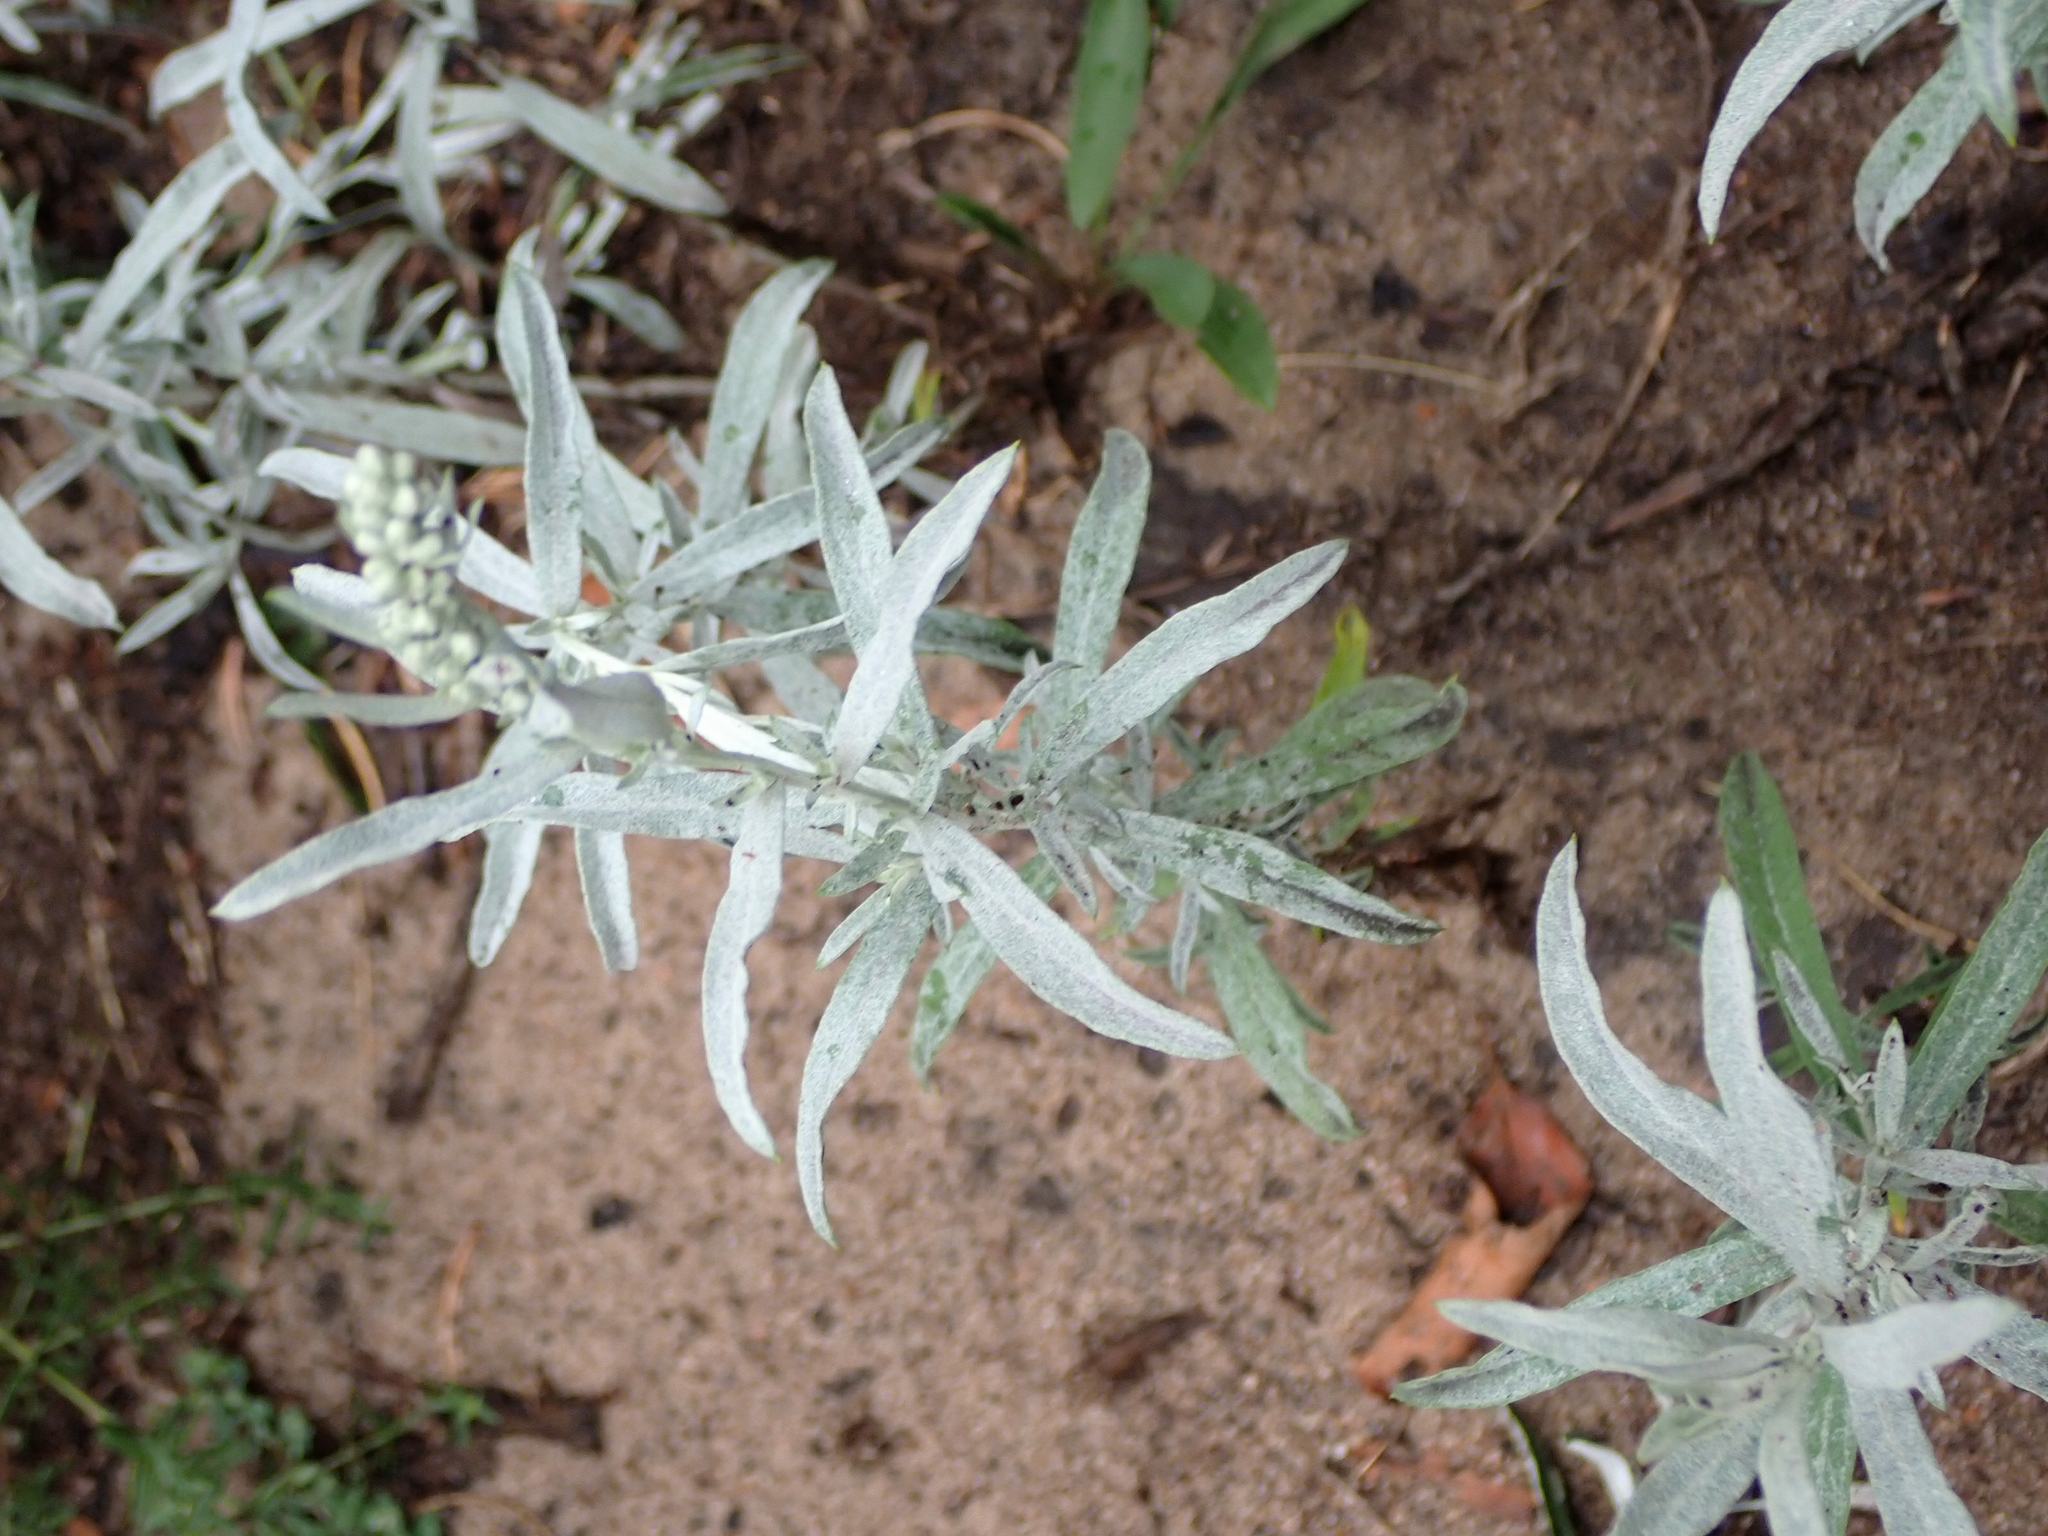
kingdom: Plantae
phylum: Tracheophyta
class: Magnoliopsida
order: Asterales
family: Asteraceae
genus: Artemisia
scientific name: Artemisia ludoviciana
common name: Western mugwort
